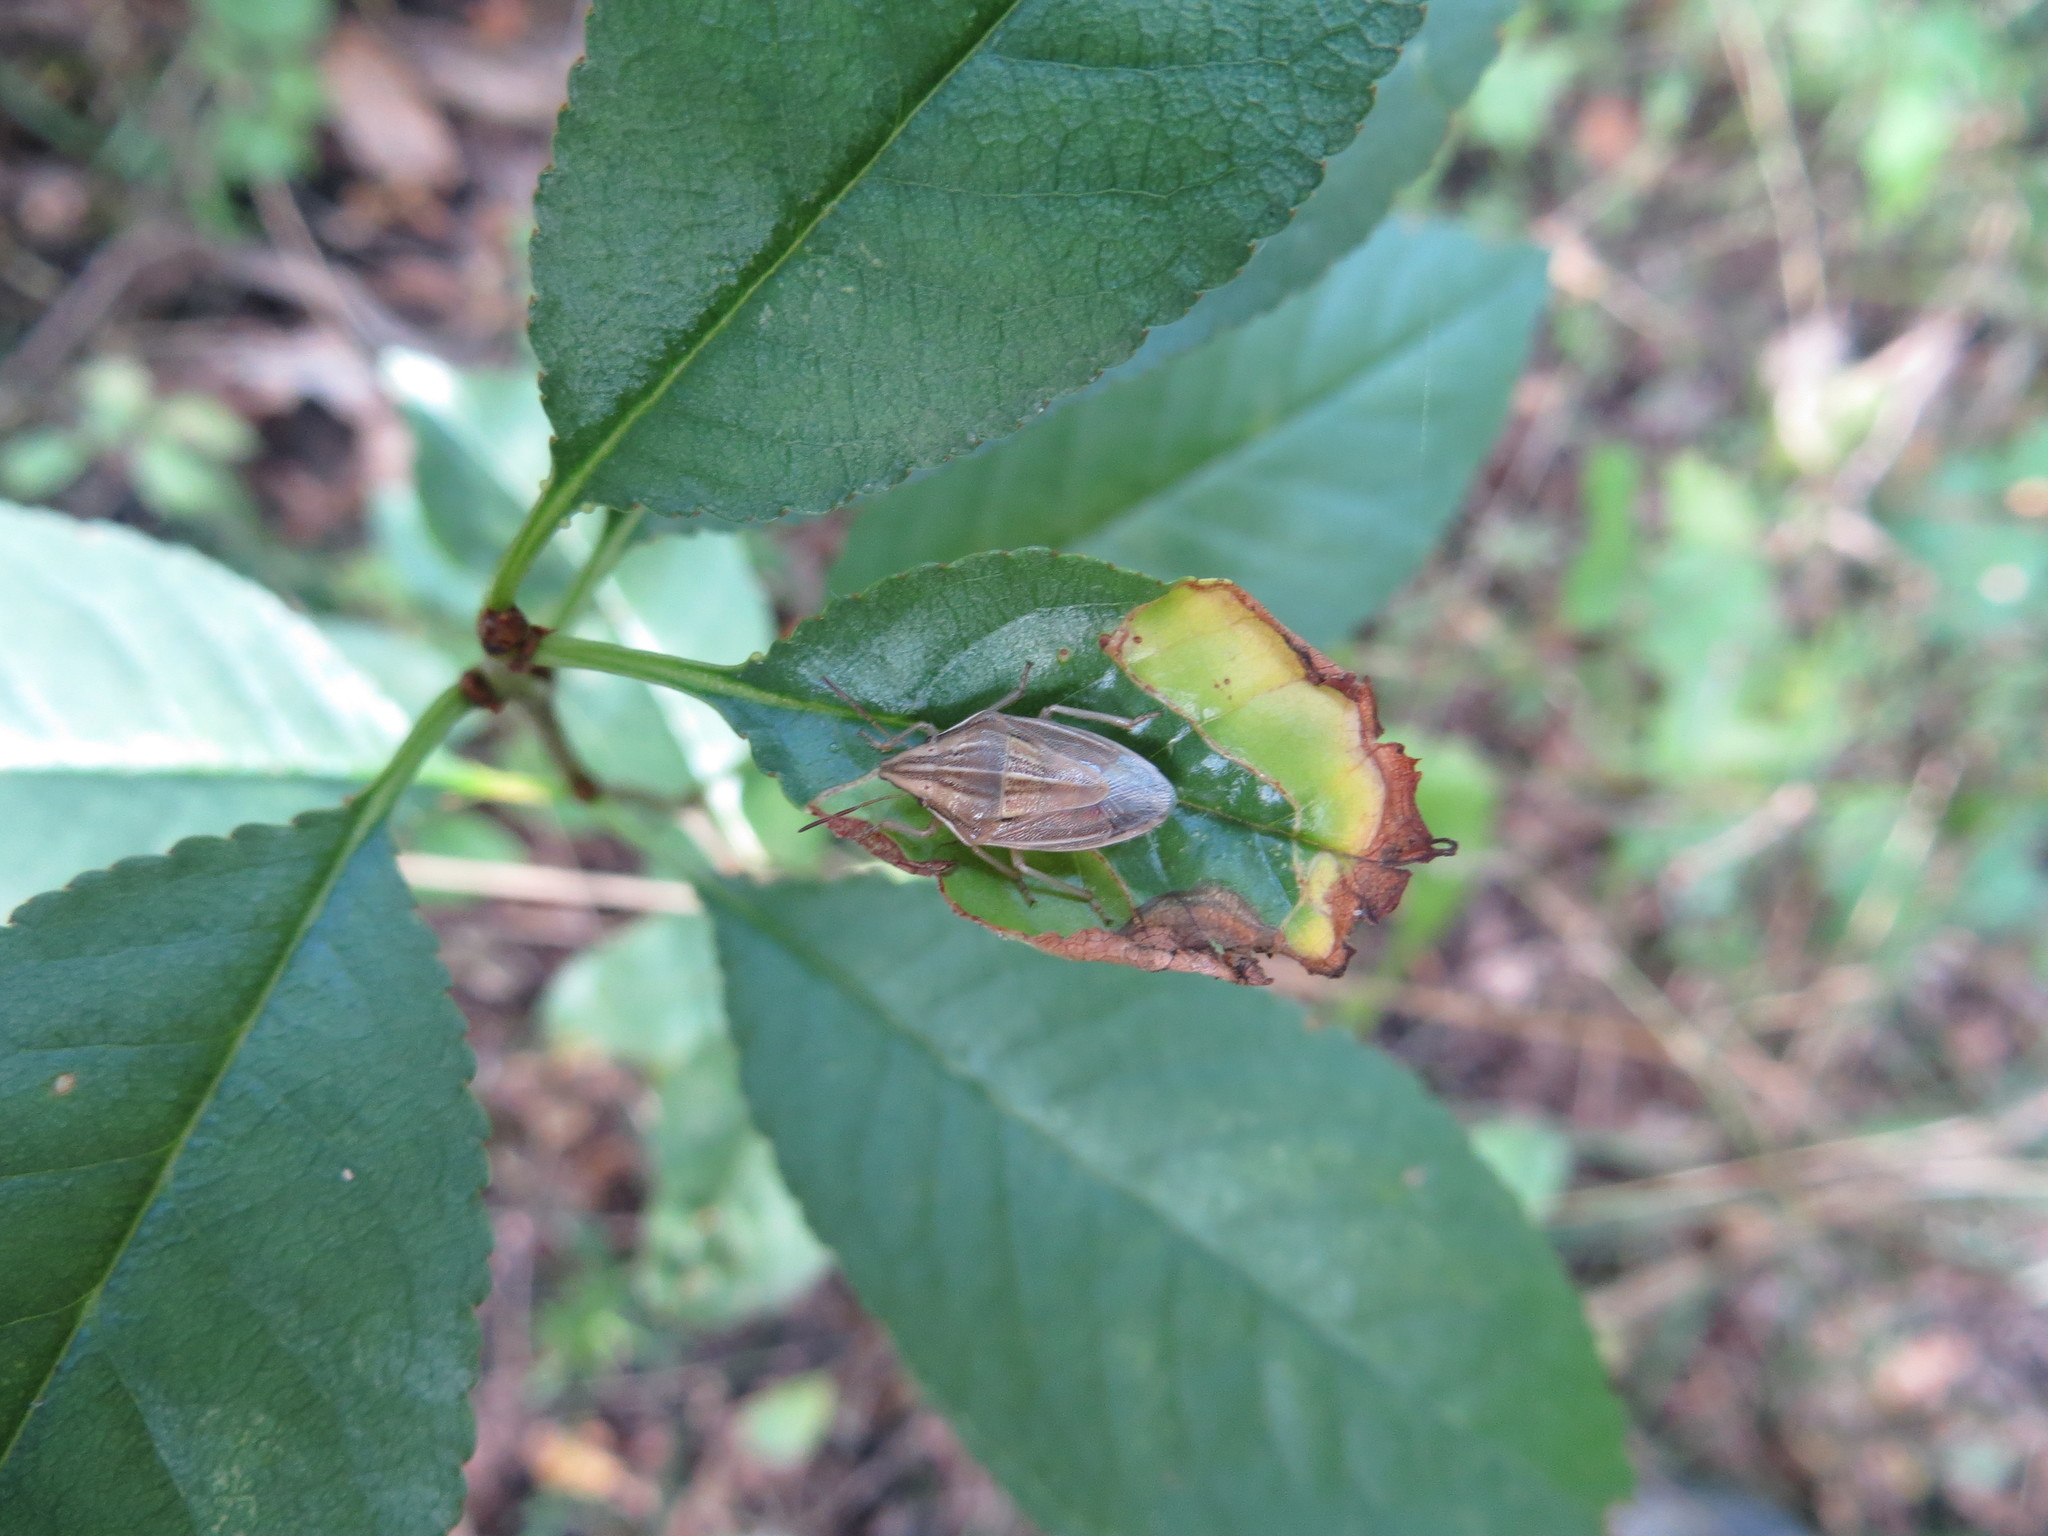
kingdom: Animalia
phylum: Arthropoda
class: Insecta
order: Hemiptera
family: Pentatomidae
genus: Aelia
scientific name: Aelia acuminata
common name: Bishop's mitre
